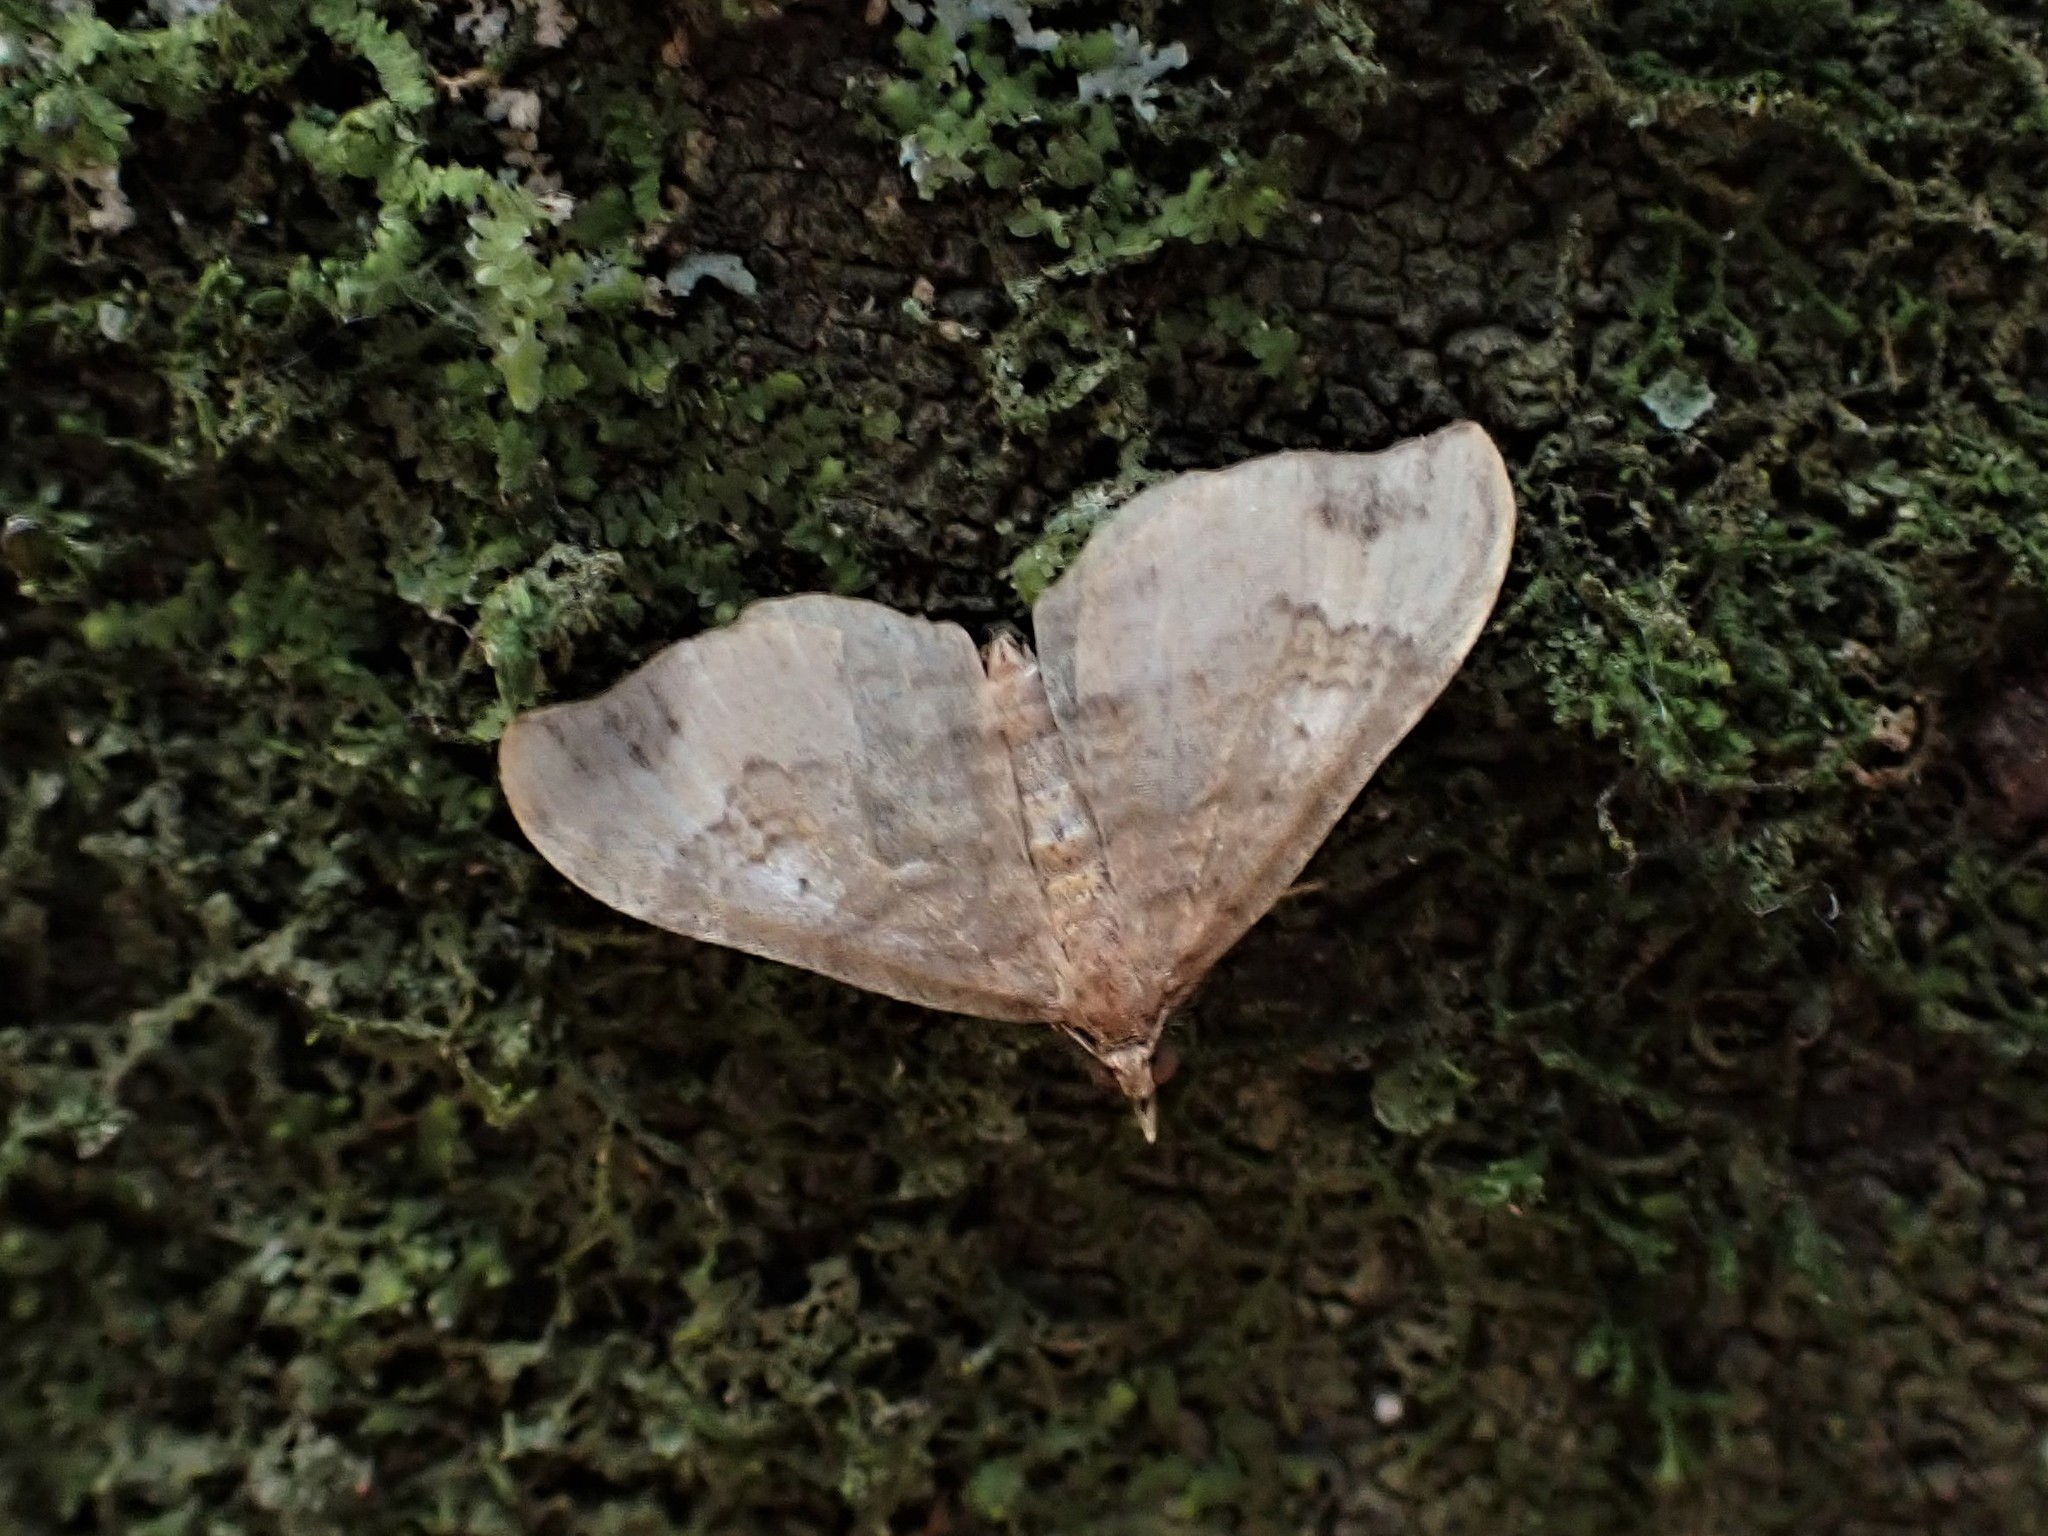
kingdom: Animalia
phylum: Arthropoda
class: Insecta
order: Lepidoptera
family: Geometridae
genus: Homodotis
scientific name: Homodotis megaspilata
